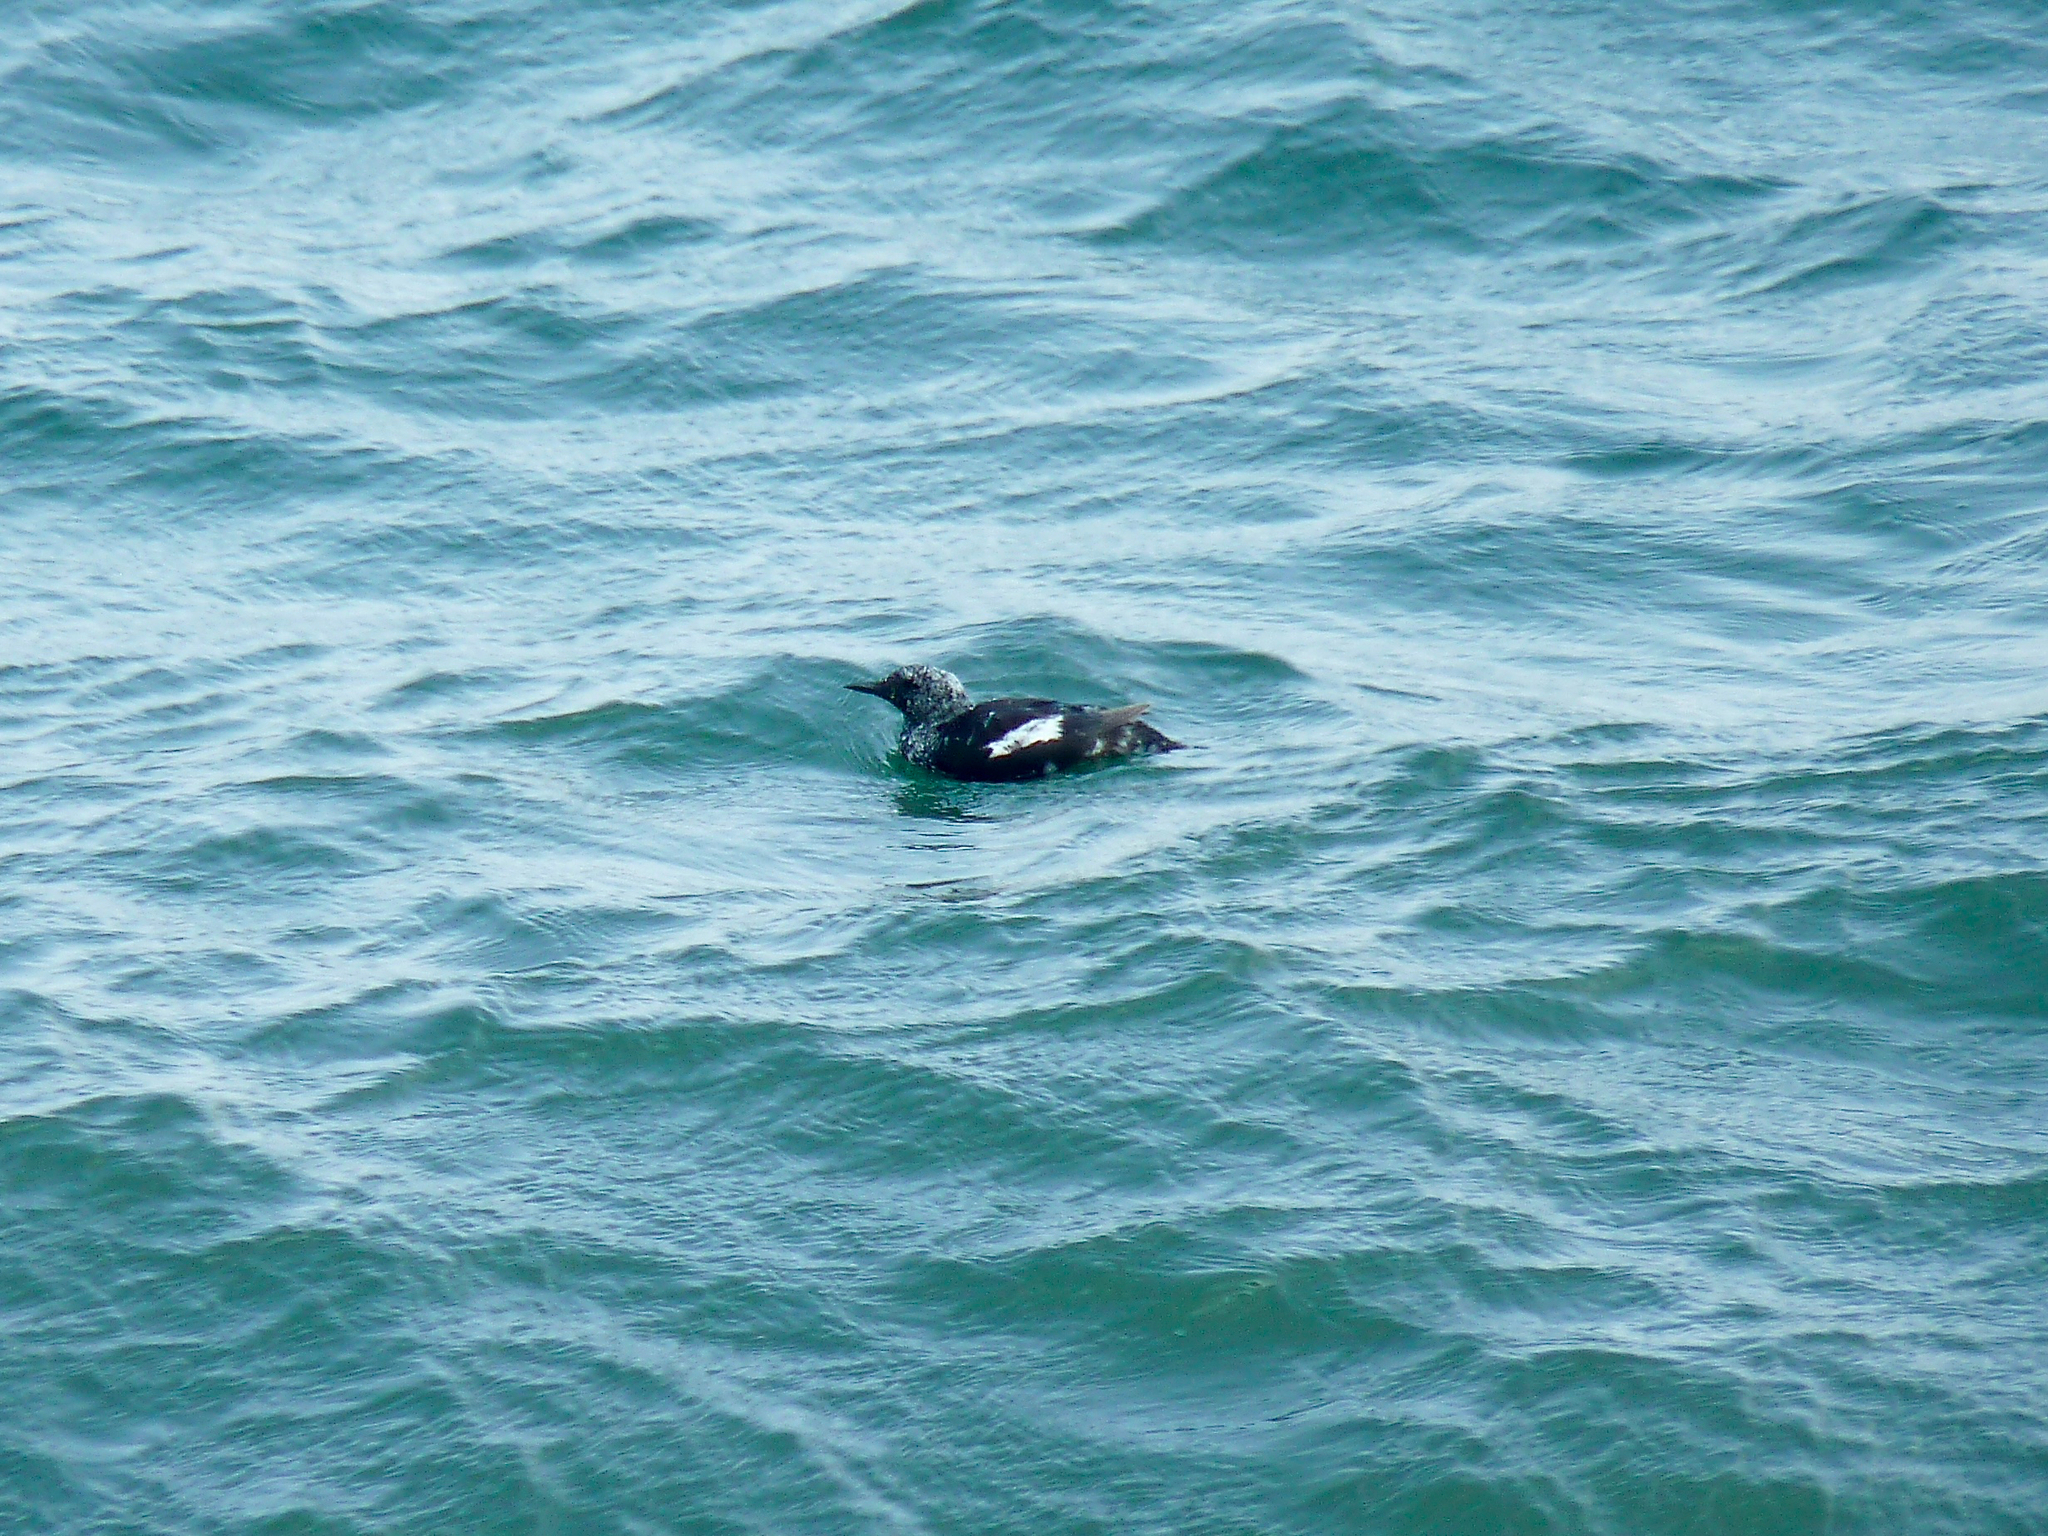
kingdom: Animalia
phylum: Chordata
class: Aves
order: Charadriiformes
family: Alcidae
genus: Cepphus
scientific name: Cepphus grylle
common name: Black guillemot
